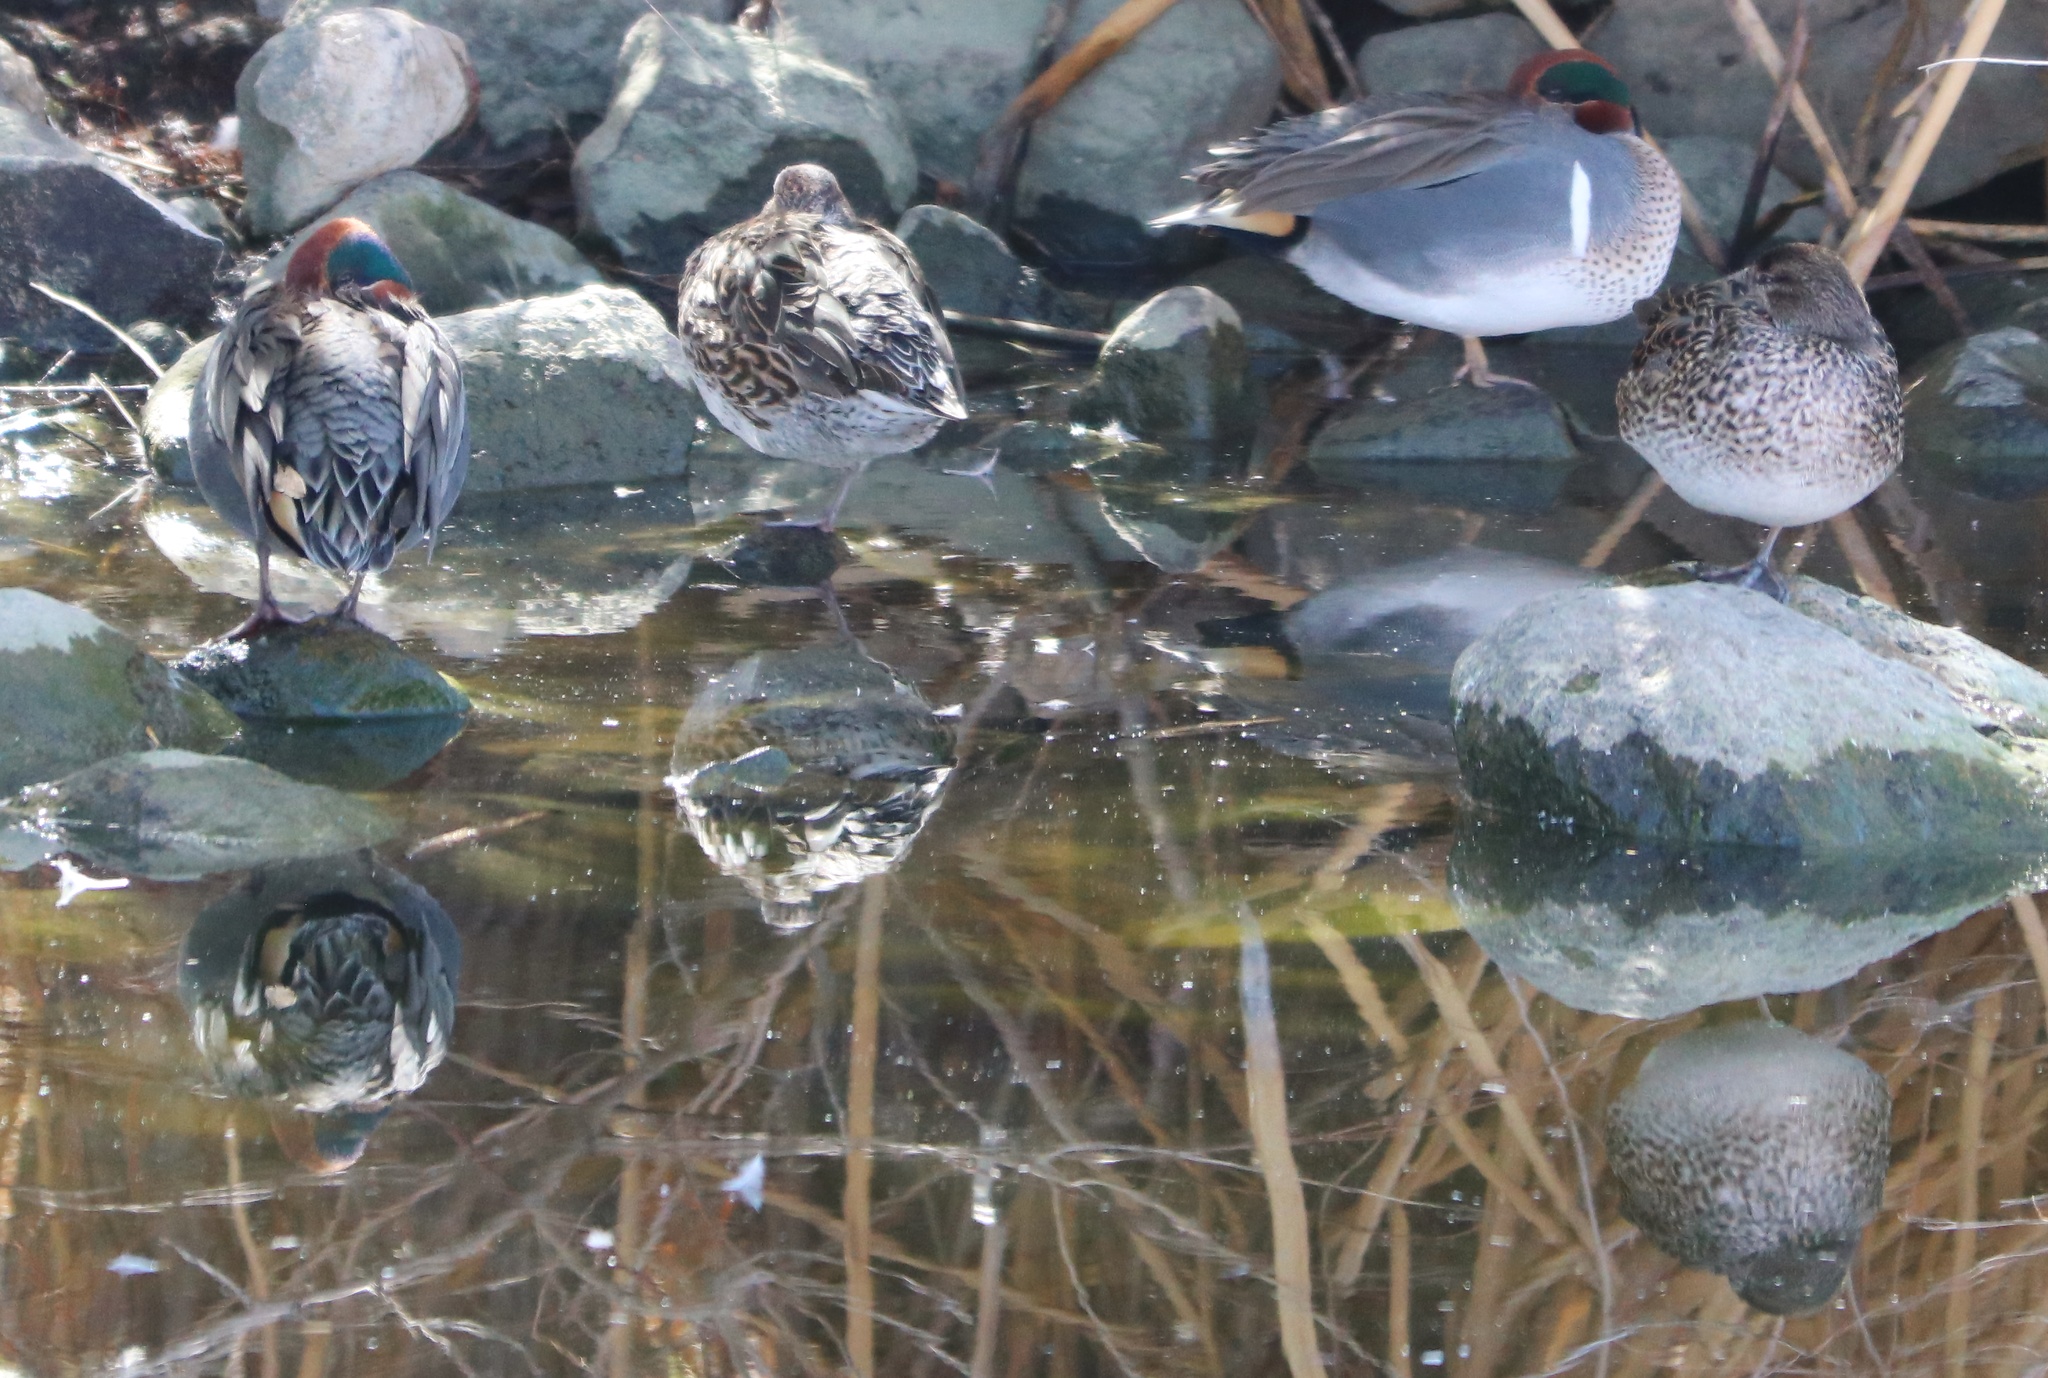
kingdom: Animalia
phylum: Chordata
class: Aves
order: Anseriformes
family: Anatidae
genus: Anas
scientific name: Anas crecca
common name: Eurasian teal
